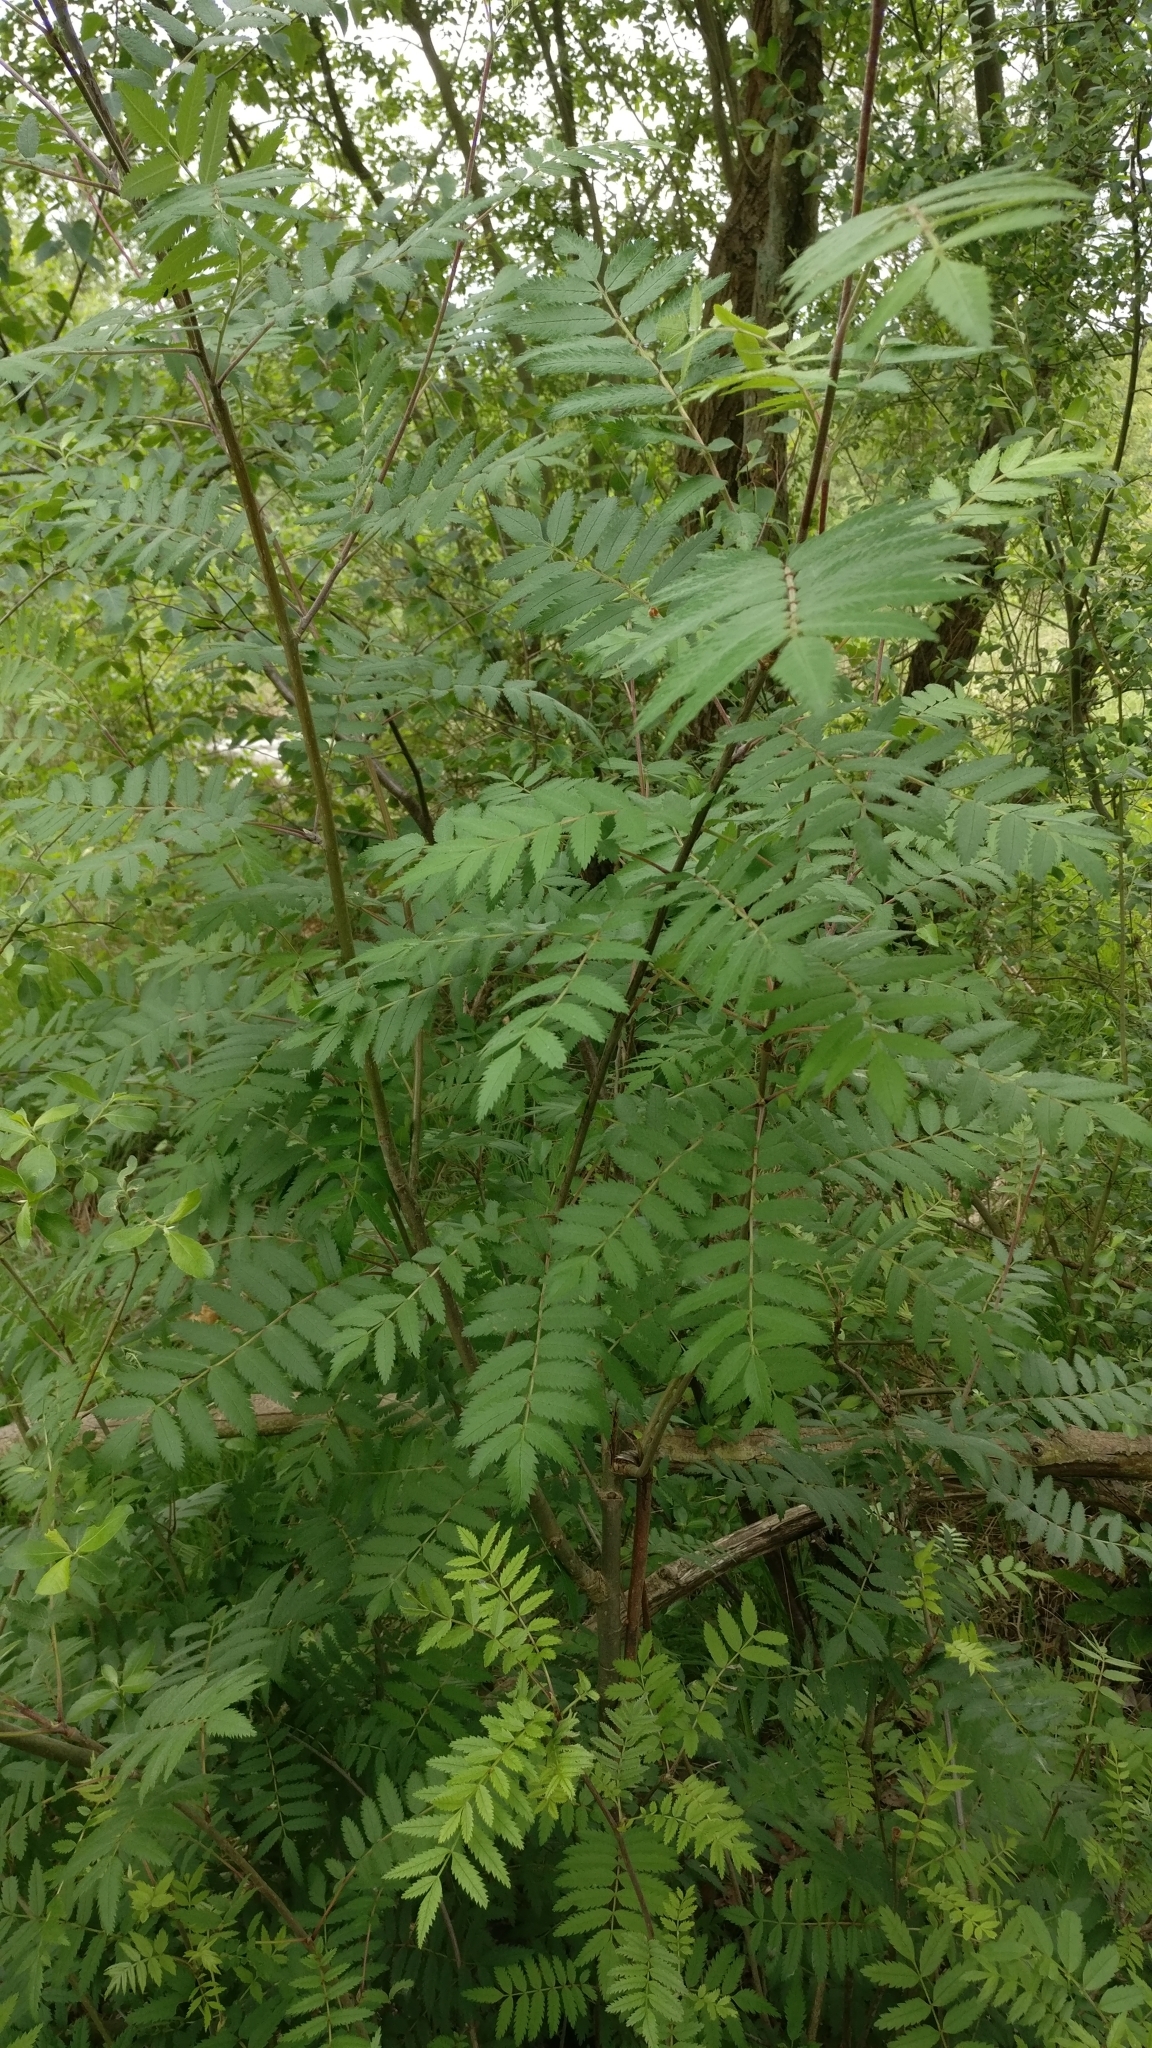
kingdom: Plantae
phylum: Tracheophyta
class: Magnoliopsida
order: Rosales
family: Rosaceae
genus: Sorbus
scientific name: Sorbus aucuparia
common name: Rowan
